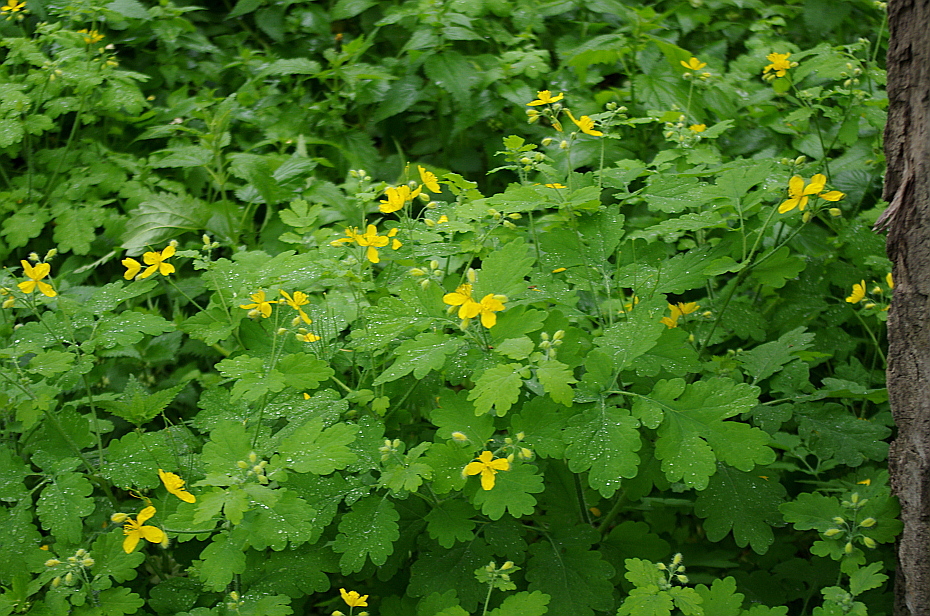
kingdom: Plantae
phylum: Tracheophyta
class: Magnoliopsida
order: Ranunculales
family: Papaveraceae
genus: Chelidonium
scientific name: Chelidonium majus
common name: Greater celandine
